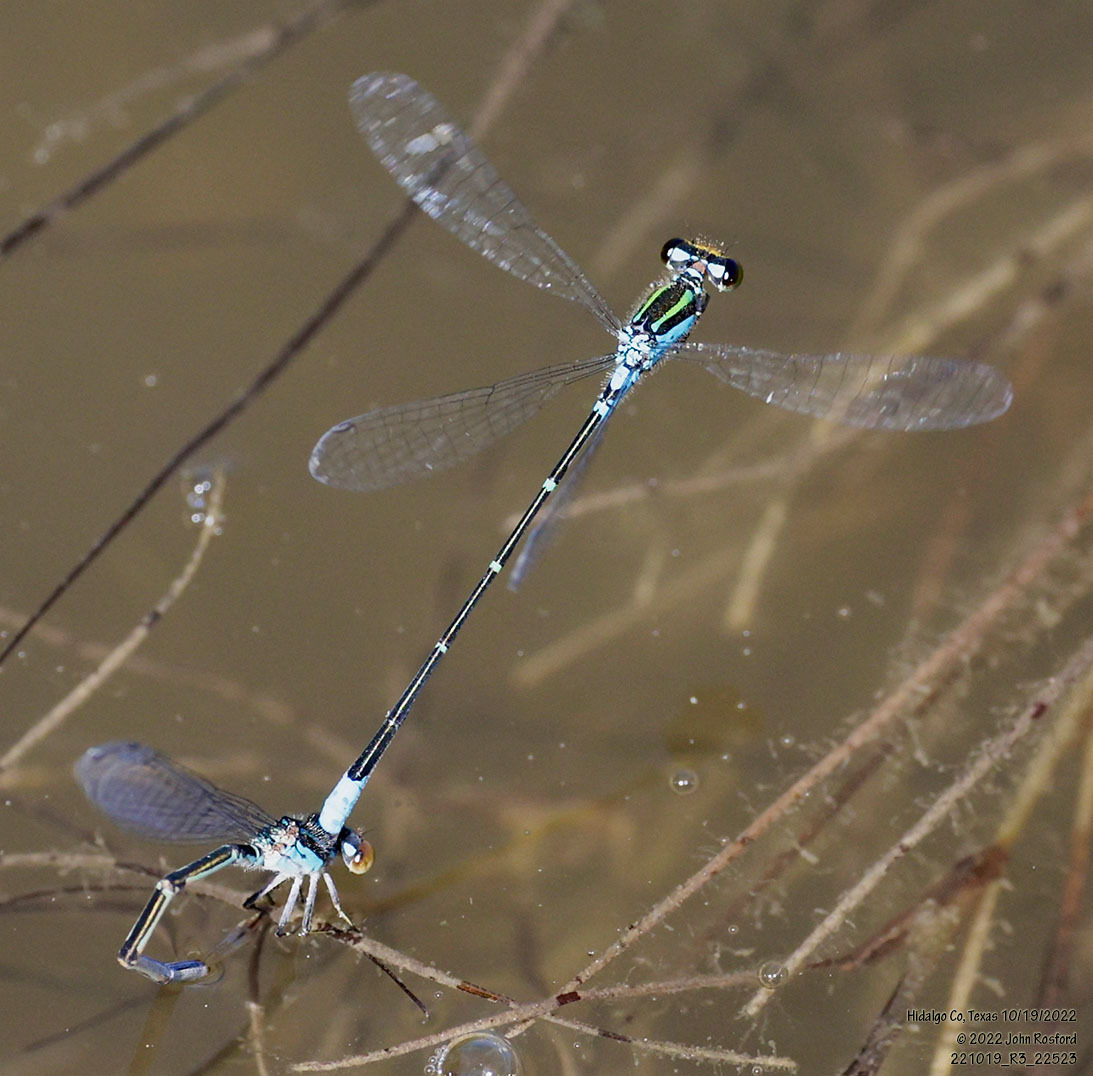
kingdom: Animalia
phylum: Arthropoda
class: Insecta
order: Odonata
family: Coenagrionidae
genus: Neoerythromma
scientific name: Neoerythromma cultellatum
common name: Caribbean yellowface
